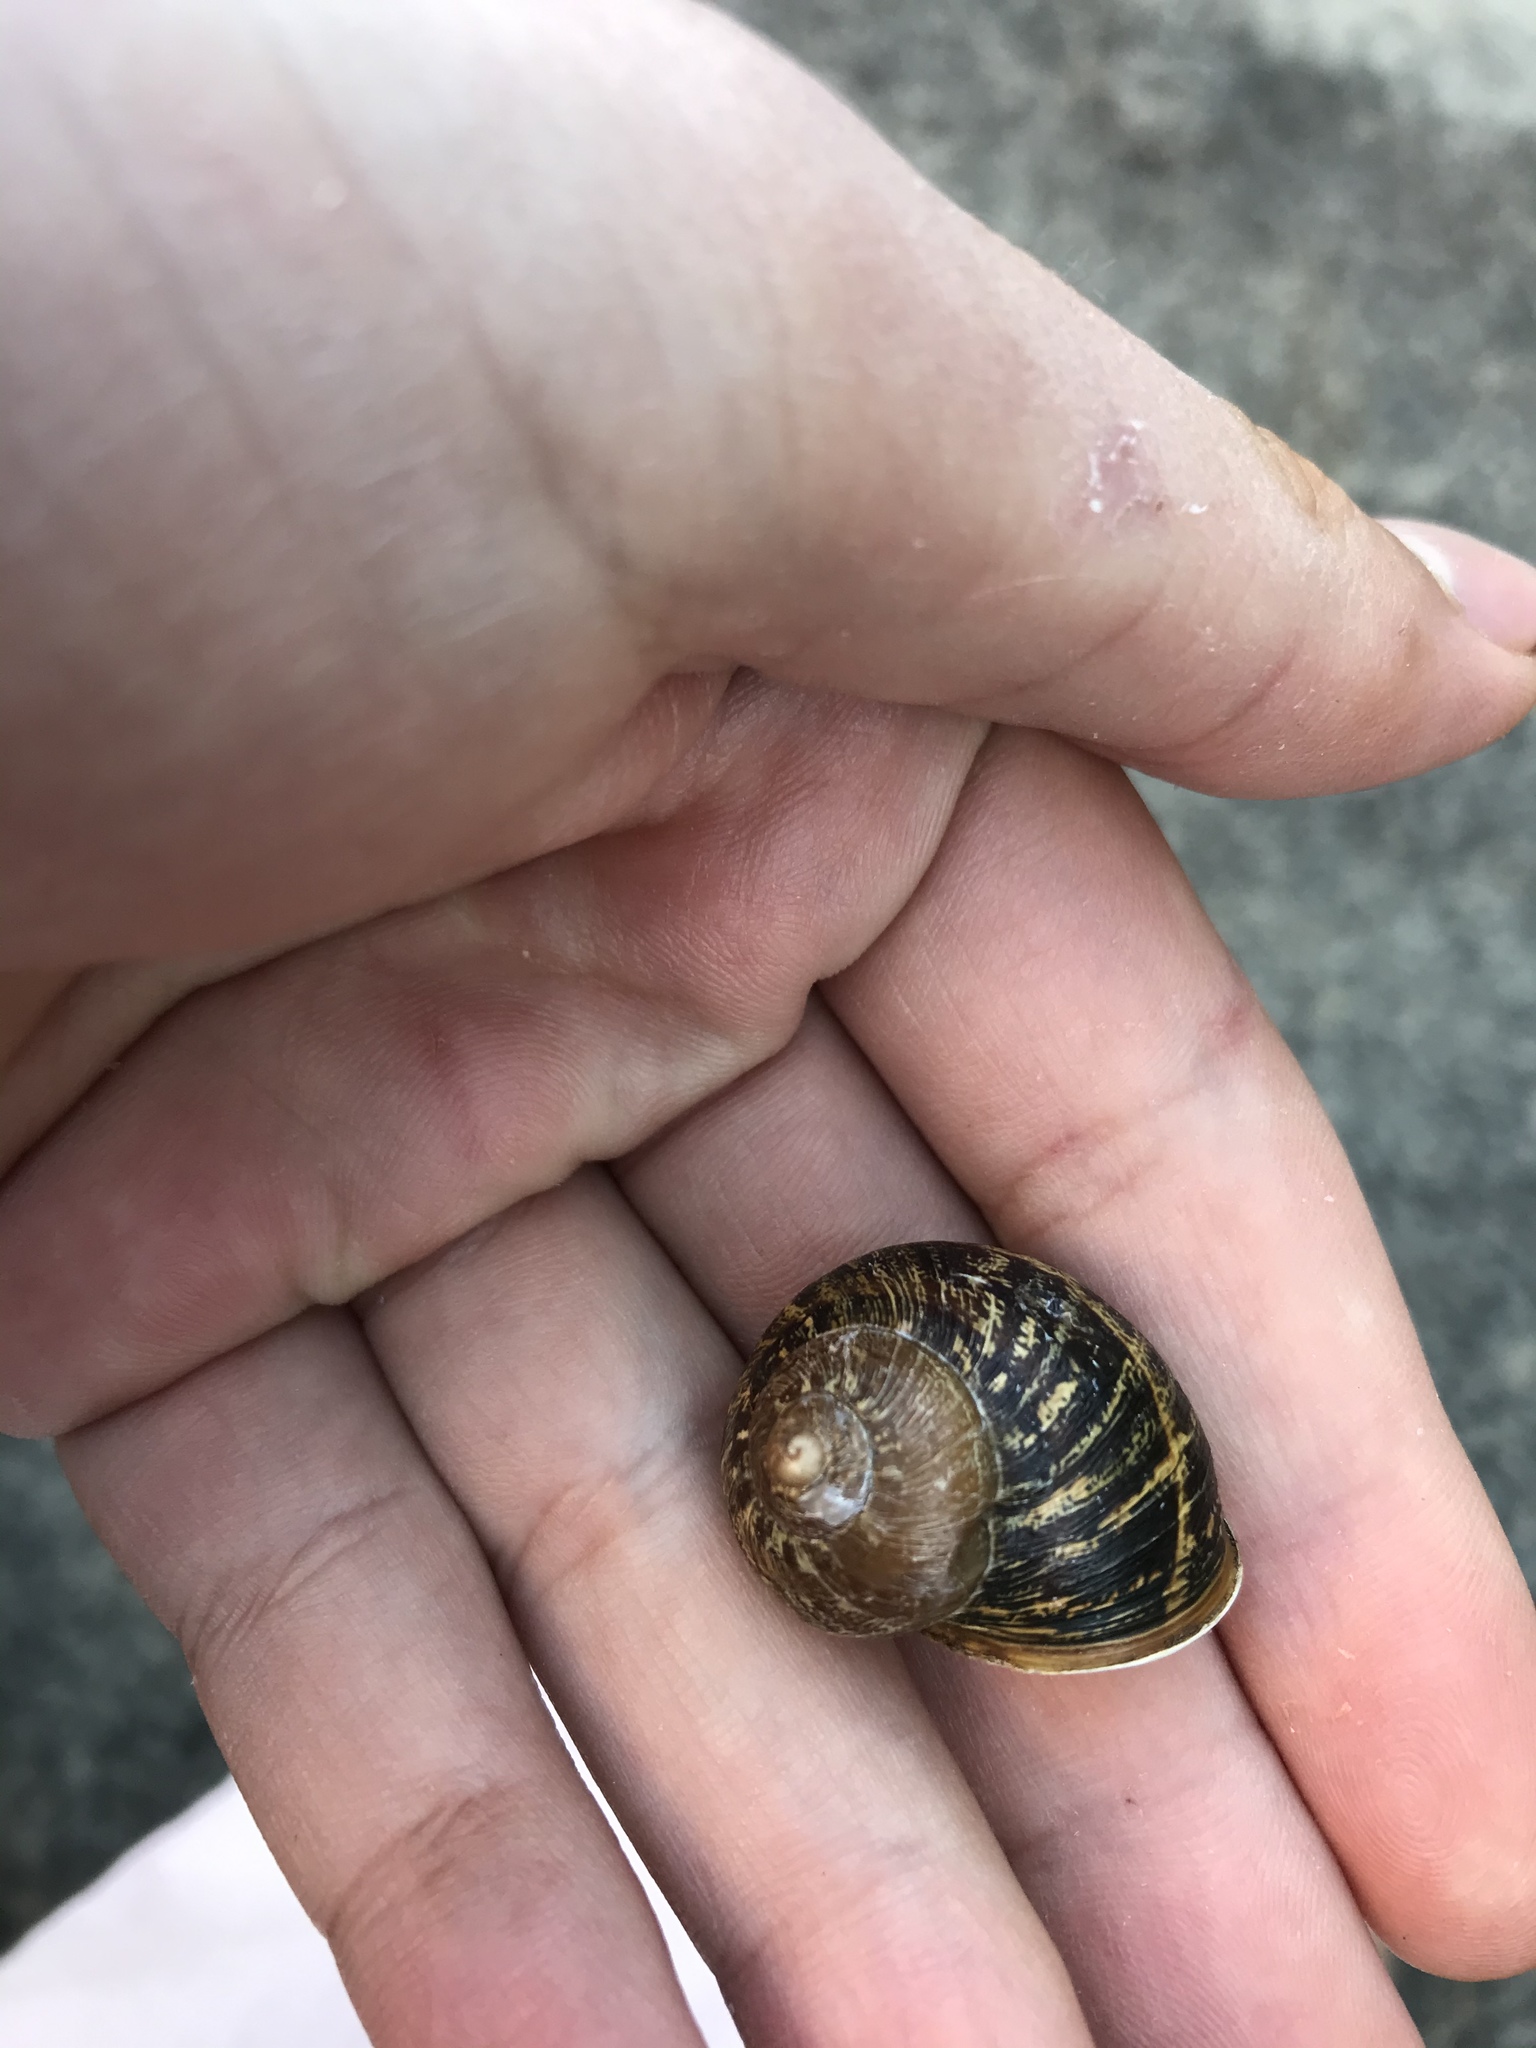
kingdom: Animalia
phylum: Mollusca
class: Gastropoda
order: Stylommatophora
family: Helicidae
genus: Cornu
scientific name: Cornu aspersum
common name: Brown garden snail
